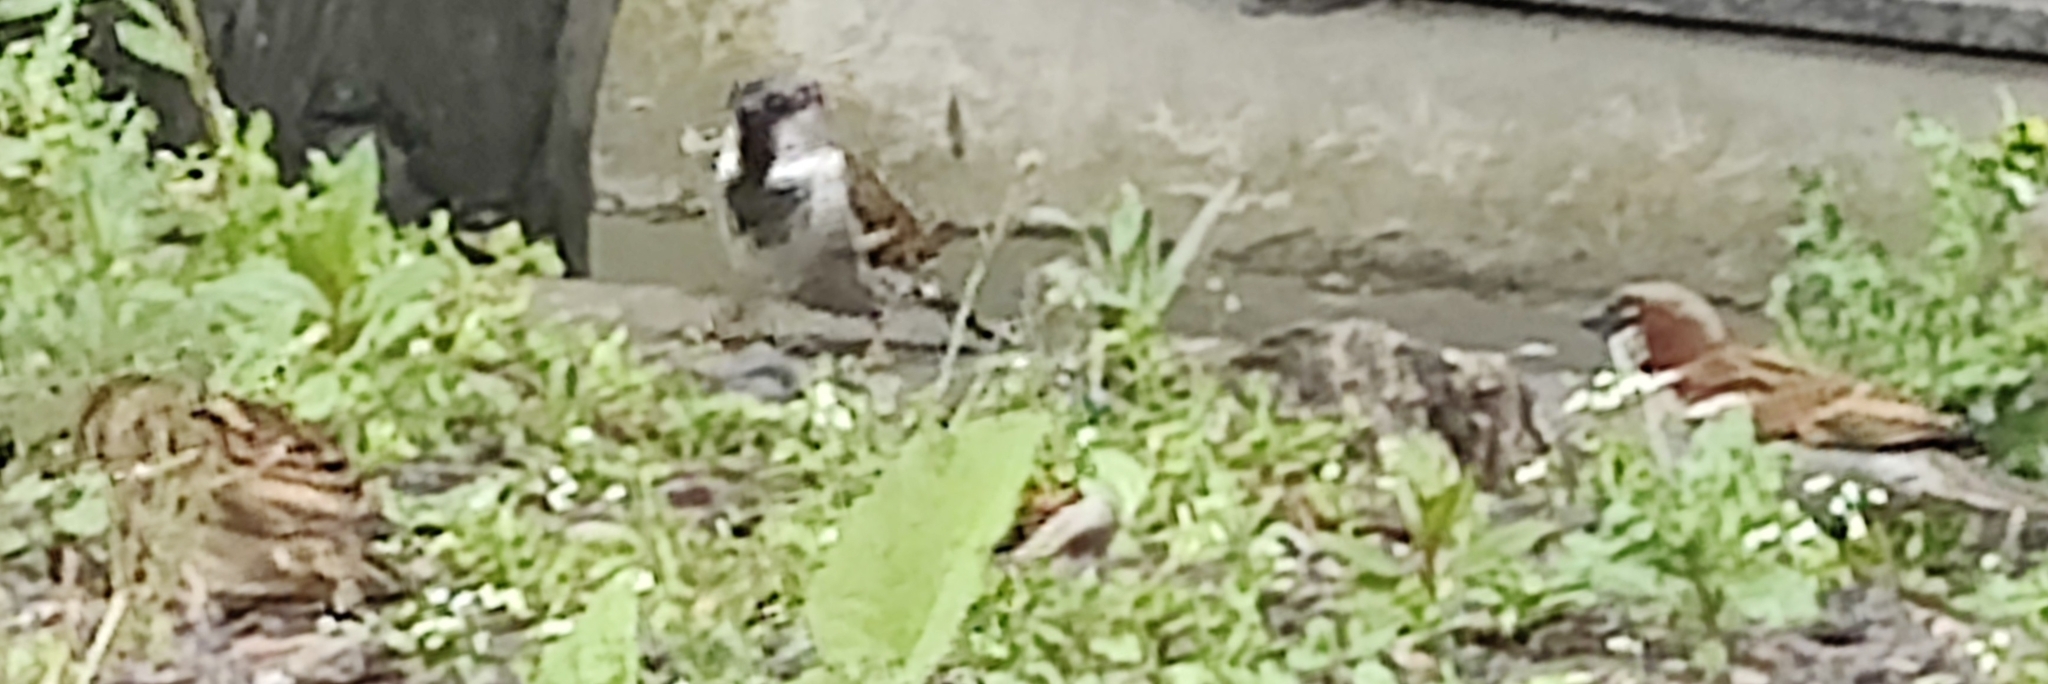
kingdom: Animalia
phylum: Chordata
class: Aves
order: Passeriformes
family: Passeridae
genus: Passer
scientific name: Passer domesticus
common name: House sparrow
